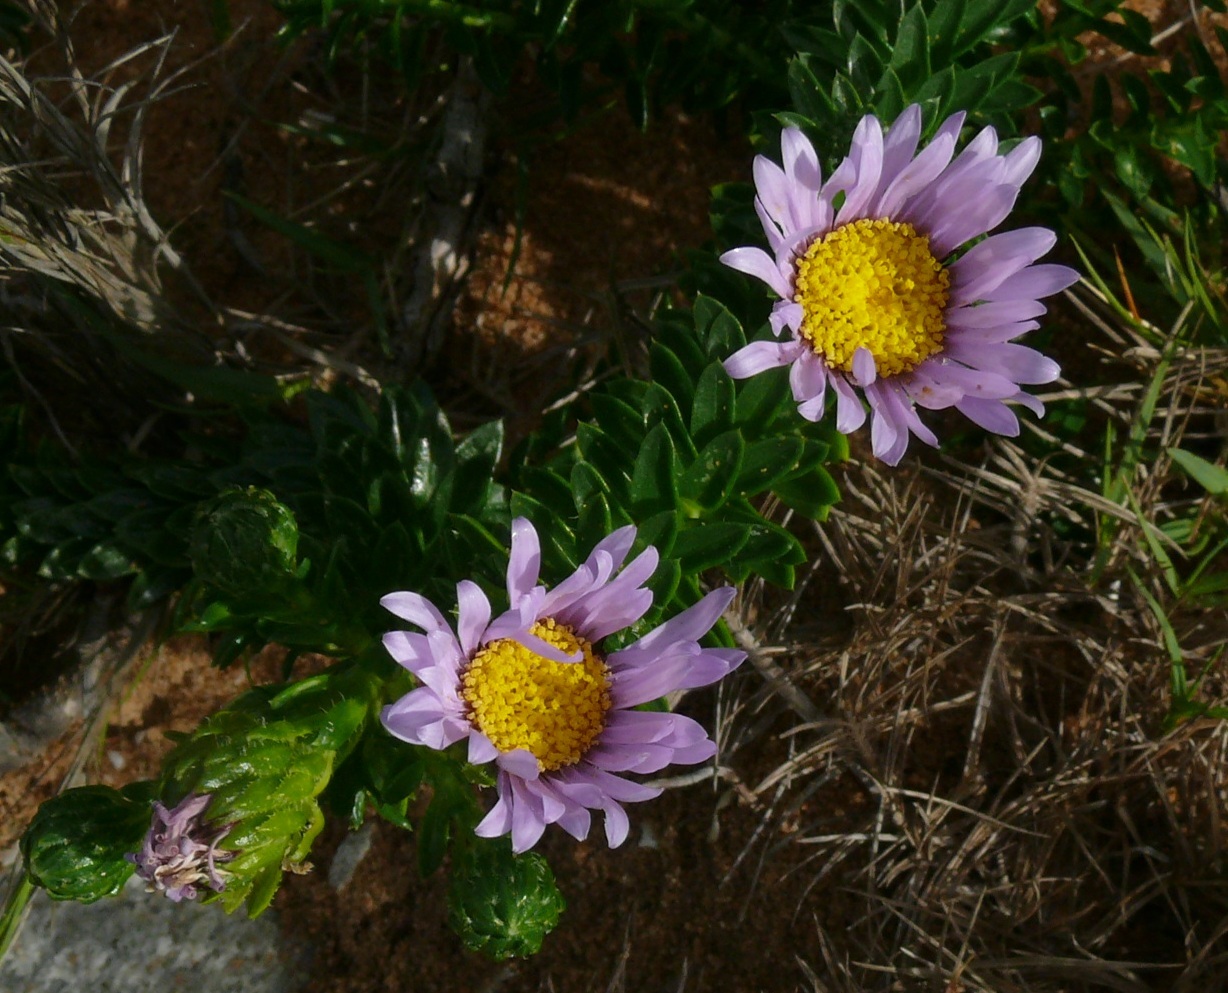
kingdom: Plantae
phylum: Tracheophyta
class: Magnoliopsida
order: Asterales
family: Asteraceae
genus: Felicia
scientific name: Felicia echinata
